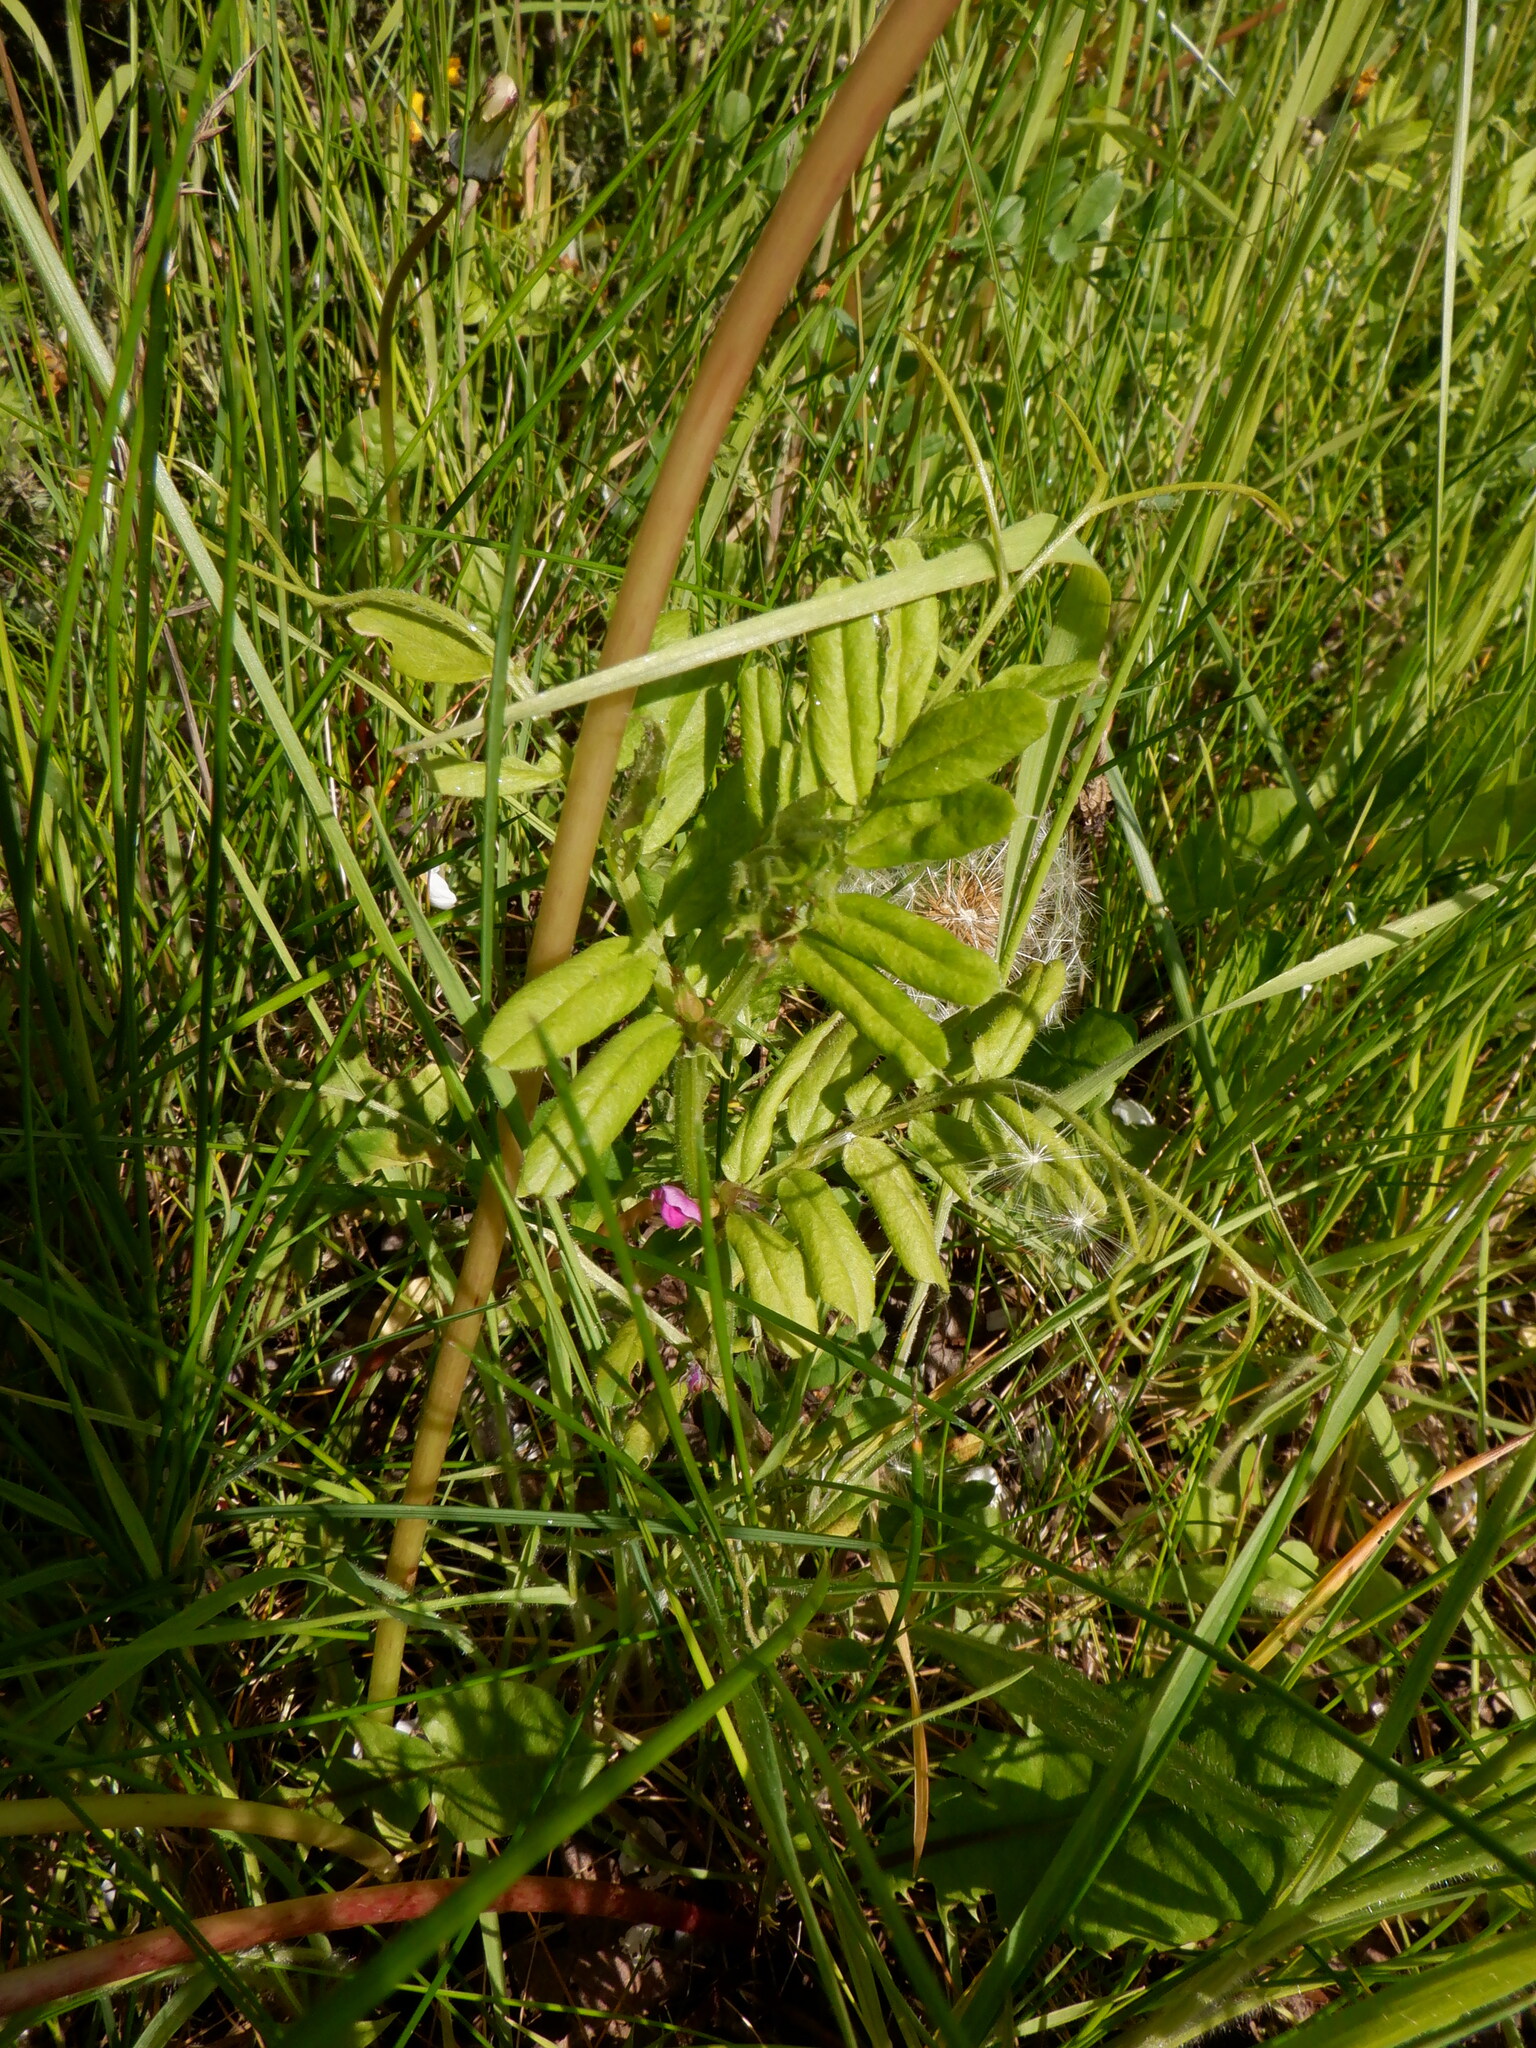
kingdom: Plantae
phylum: Tracheophyta
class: Magnoliopsida
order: Fabales
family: Fabaceae
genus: Vicia
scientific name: Vicia sativa
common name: Garden vetch
